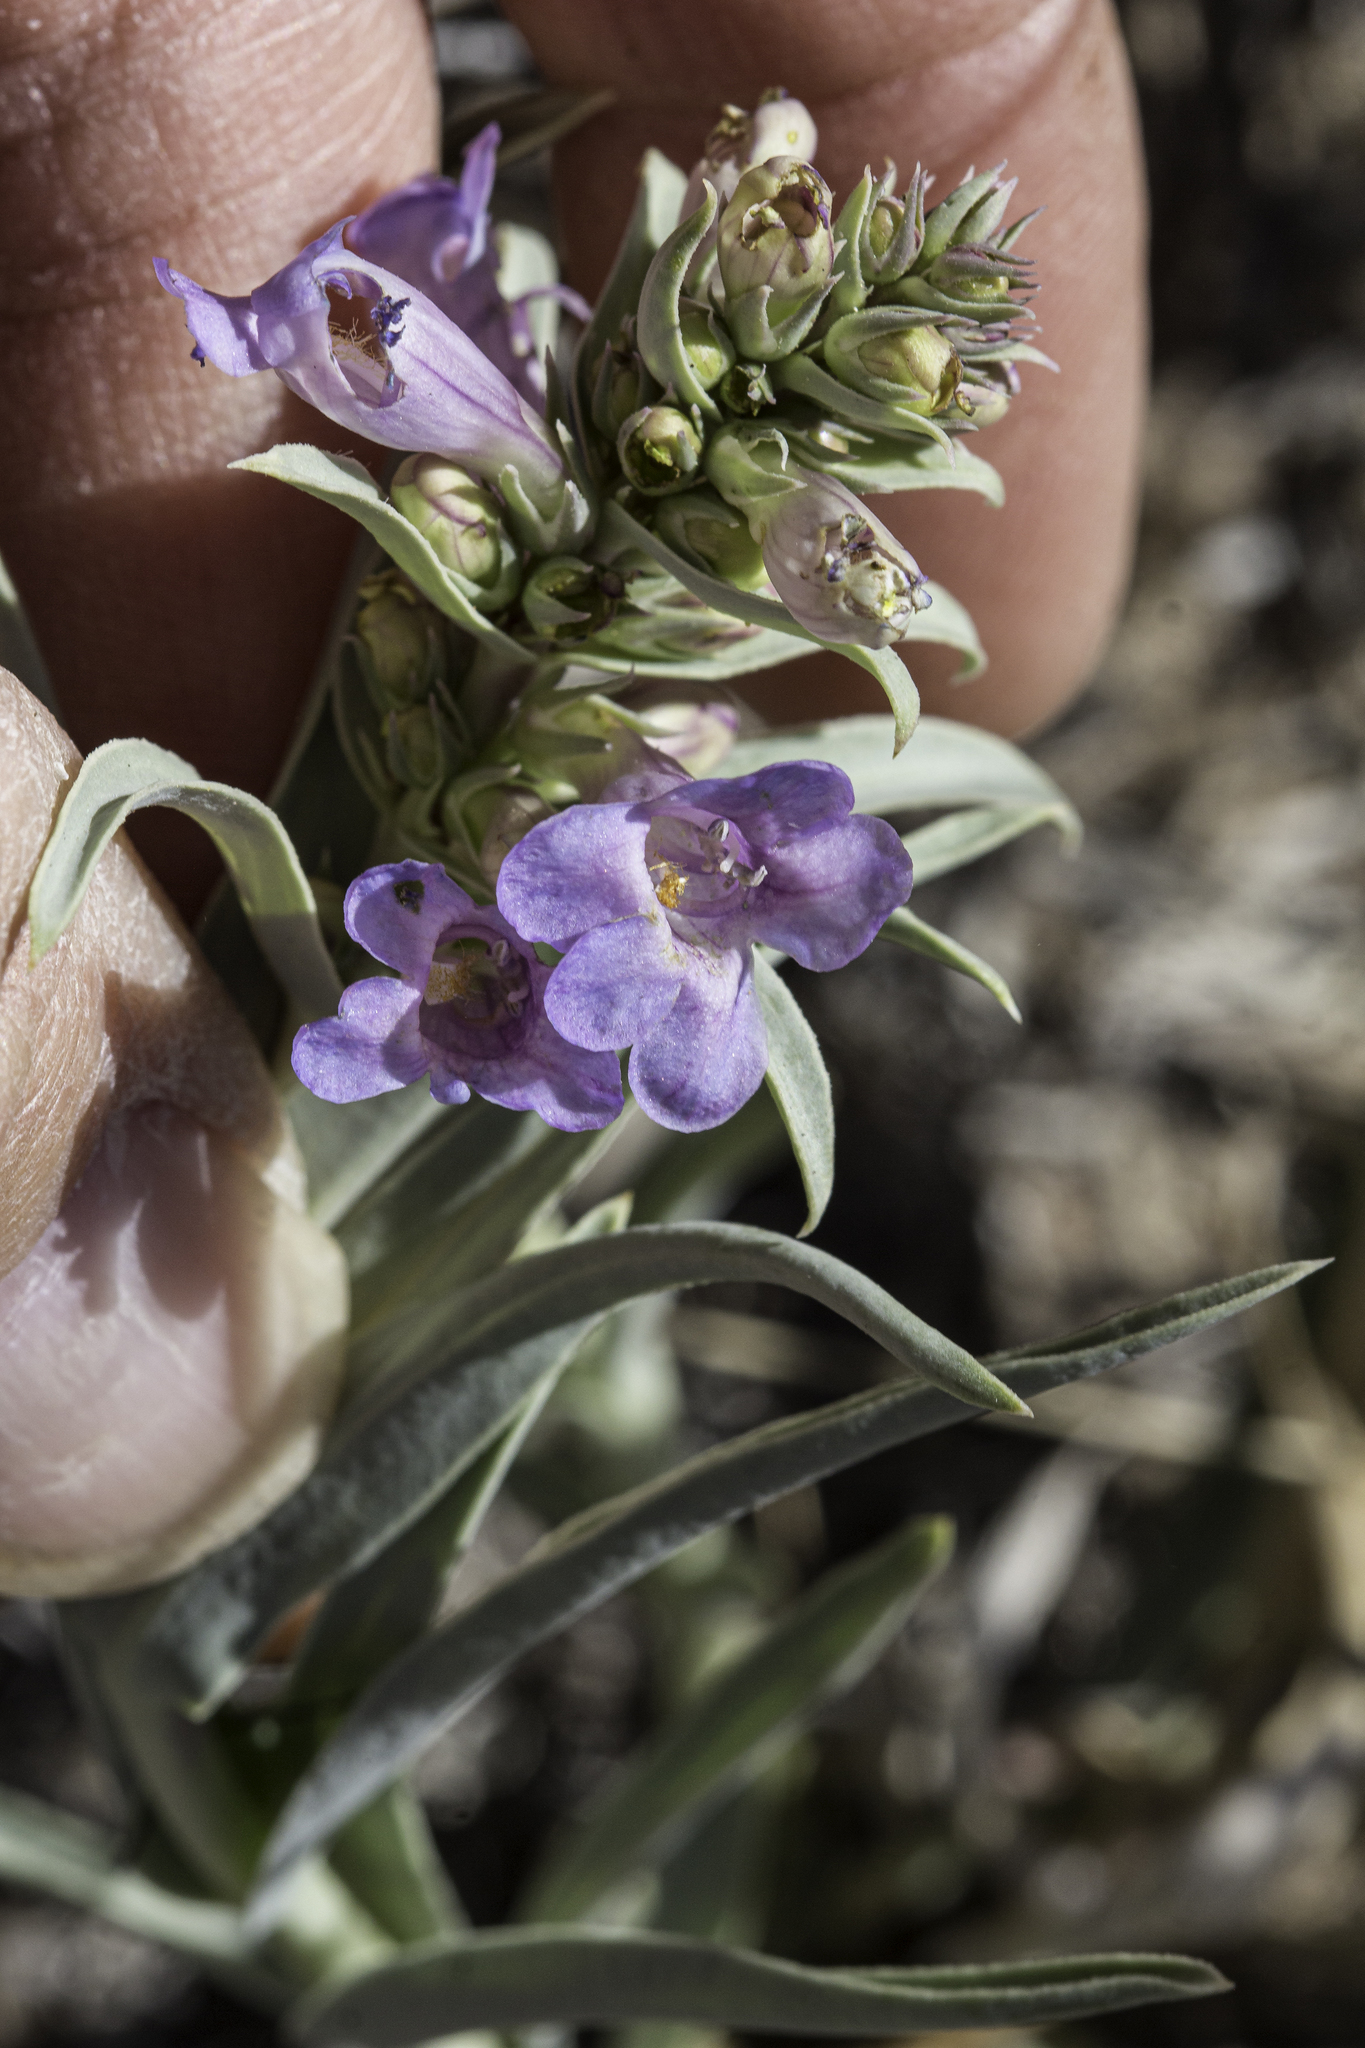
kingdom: Plantae
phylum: Tracheophyta
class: Magnoliopsida
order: Lamiales
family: Plantaginaceae
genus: Penstemon
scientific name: Penstemon angustifolius
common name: Narrow beardtongue
